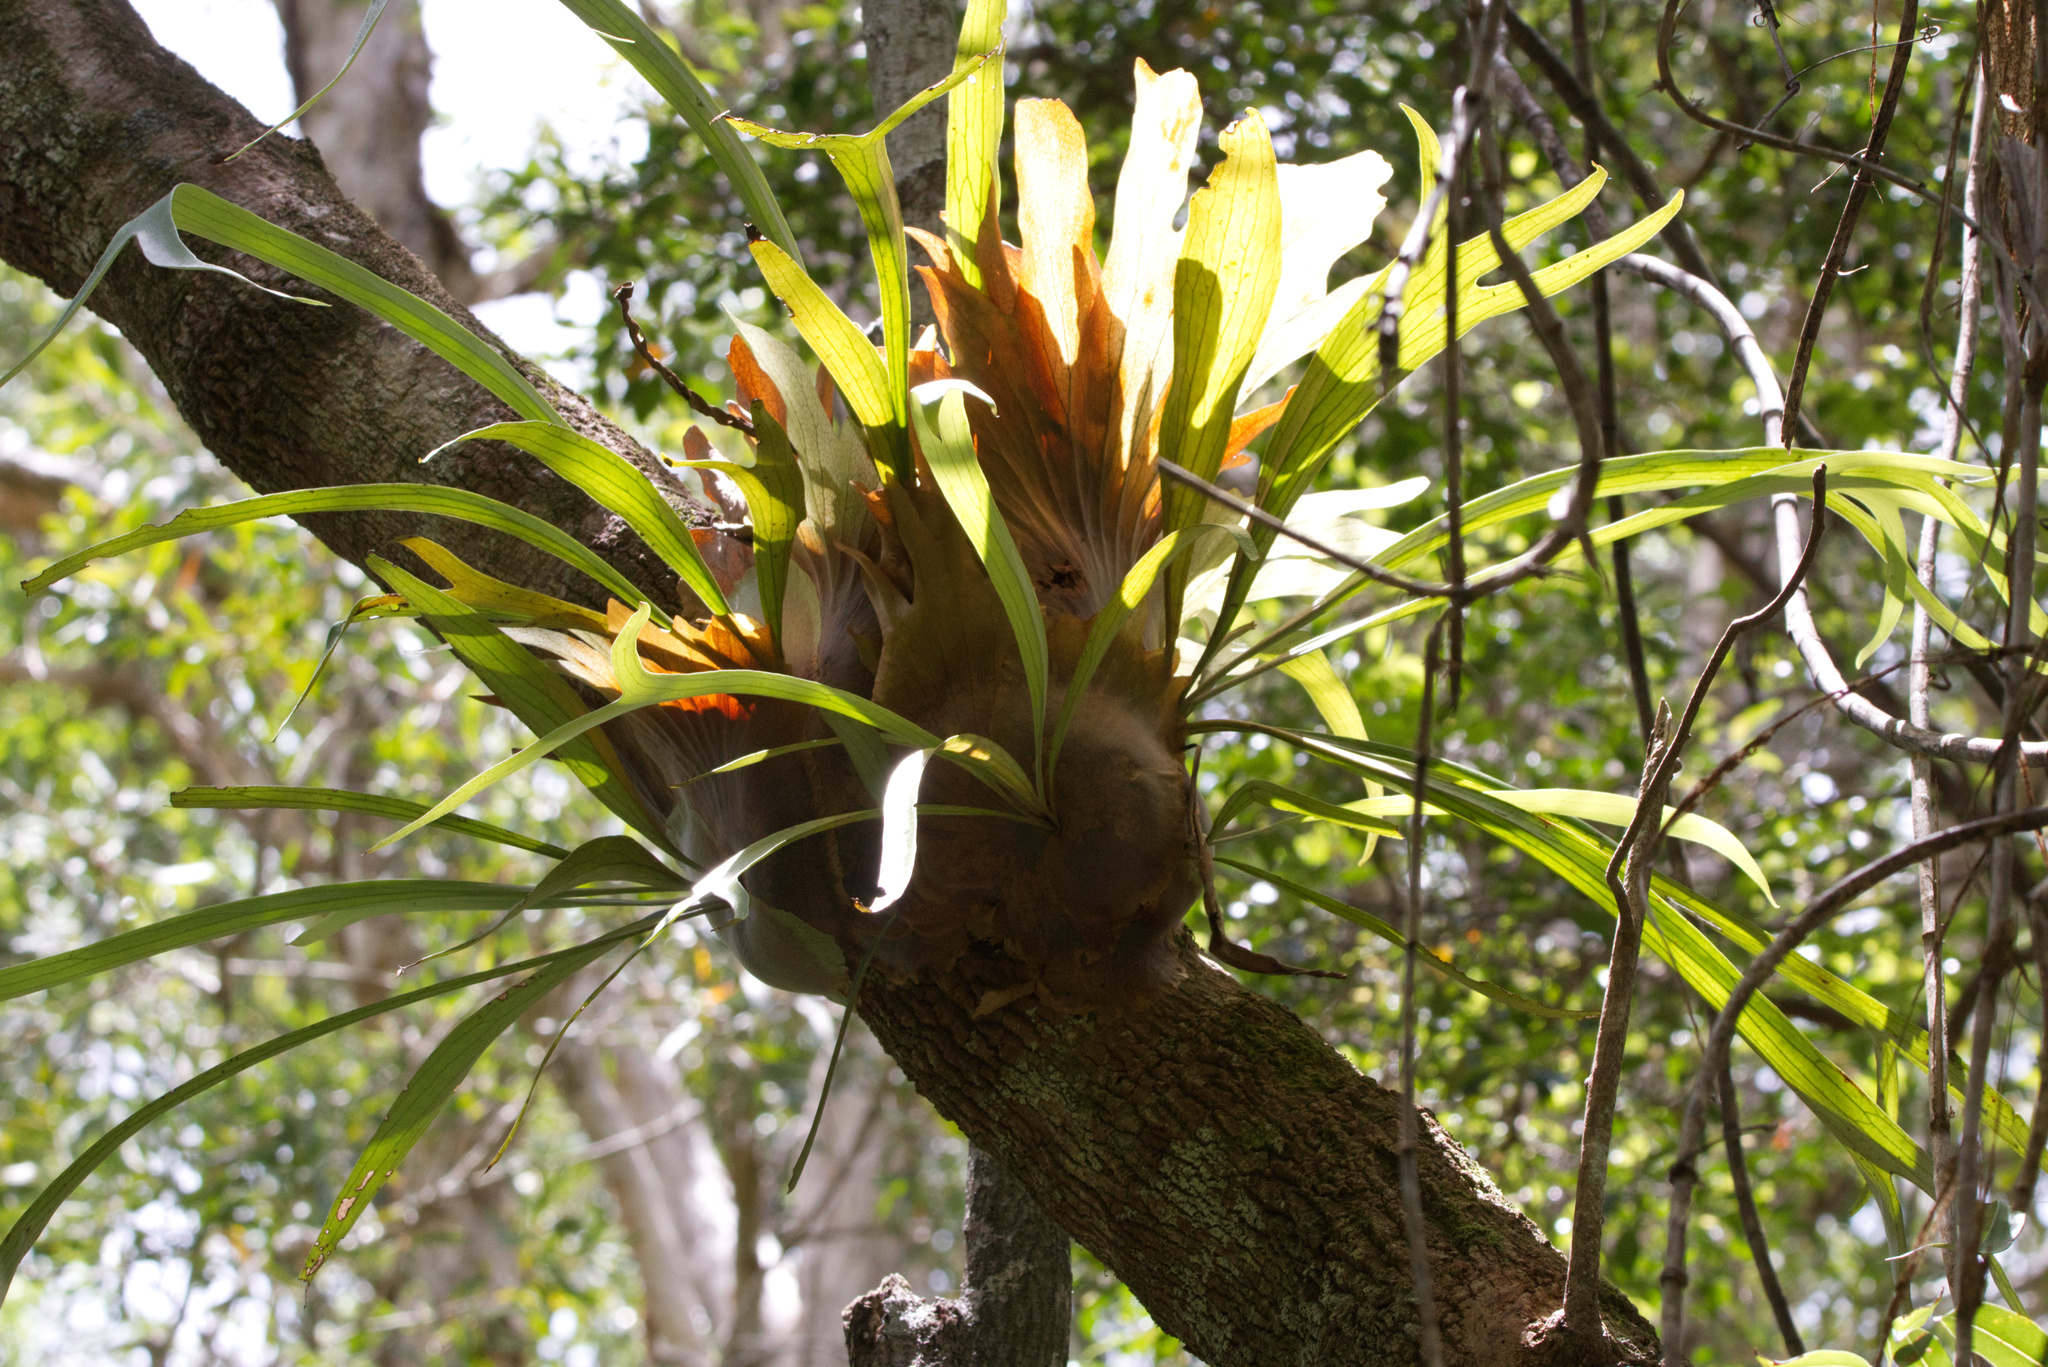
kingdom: Plantae
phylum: Tracheophyta
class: Polypodiopsida
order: Polypodiales
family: Polypodiaceae
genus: Platycerium
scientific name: Platycerium bifurcatum
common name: Elkhorn fern
